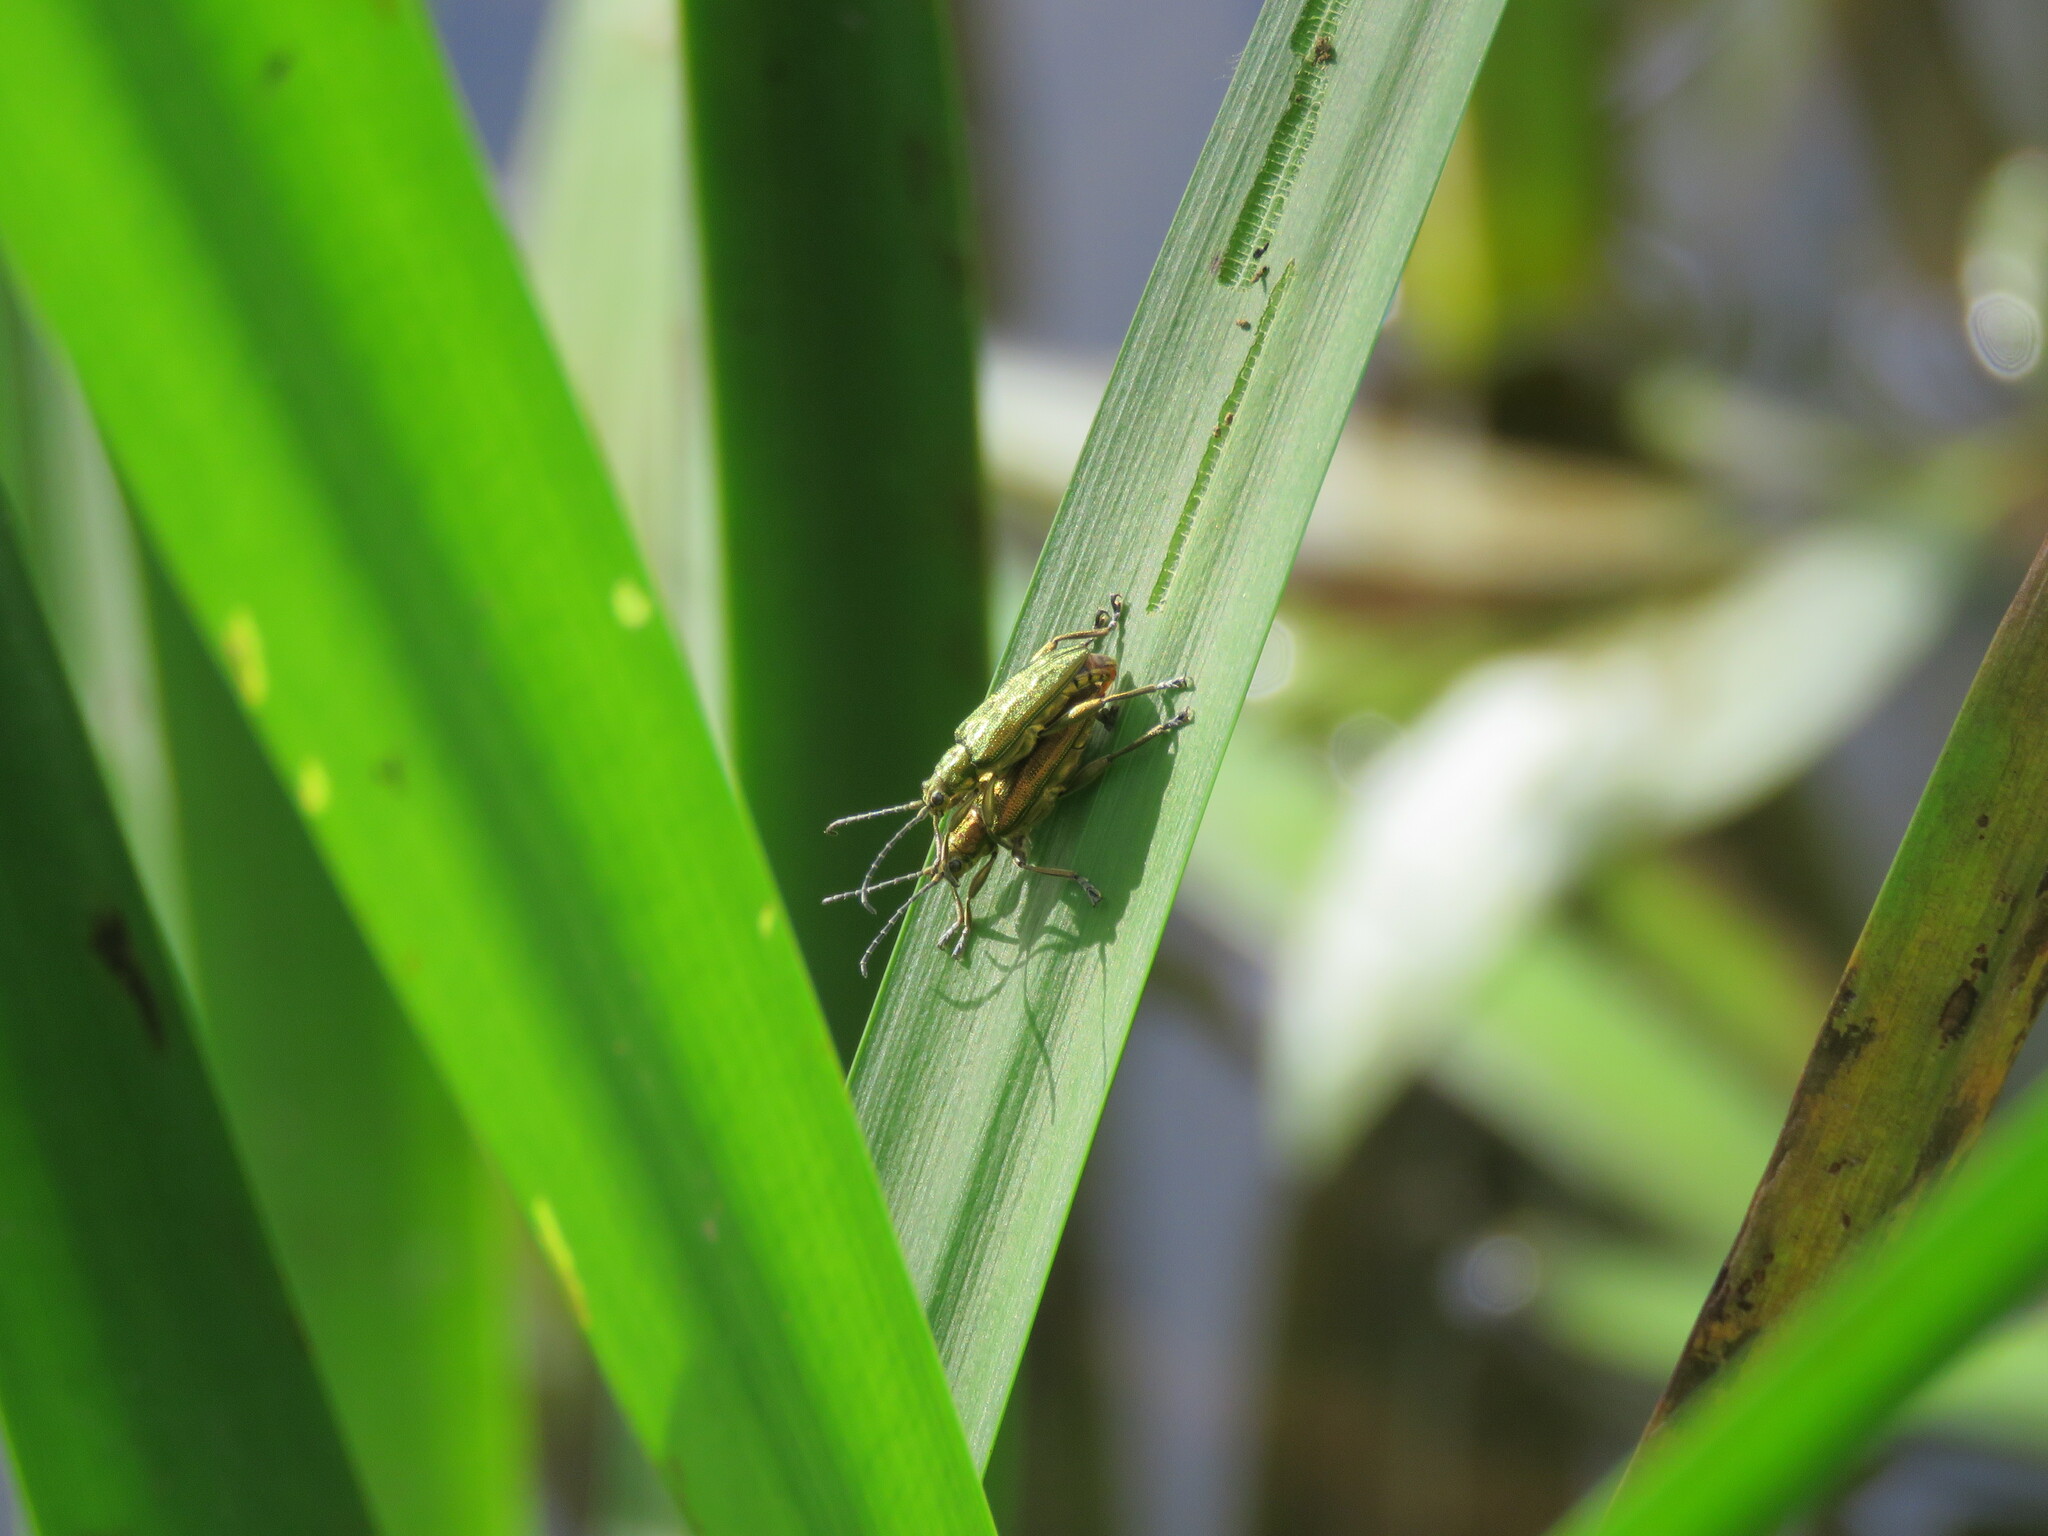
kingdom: Animalia
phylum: Arthropoda
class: Insecta
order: Coleoptera
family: Chrysomelidae
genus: Donacia
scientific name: Donacia bicolora
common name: Reed beetle
